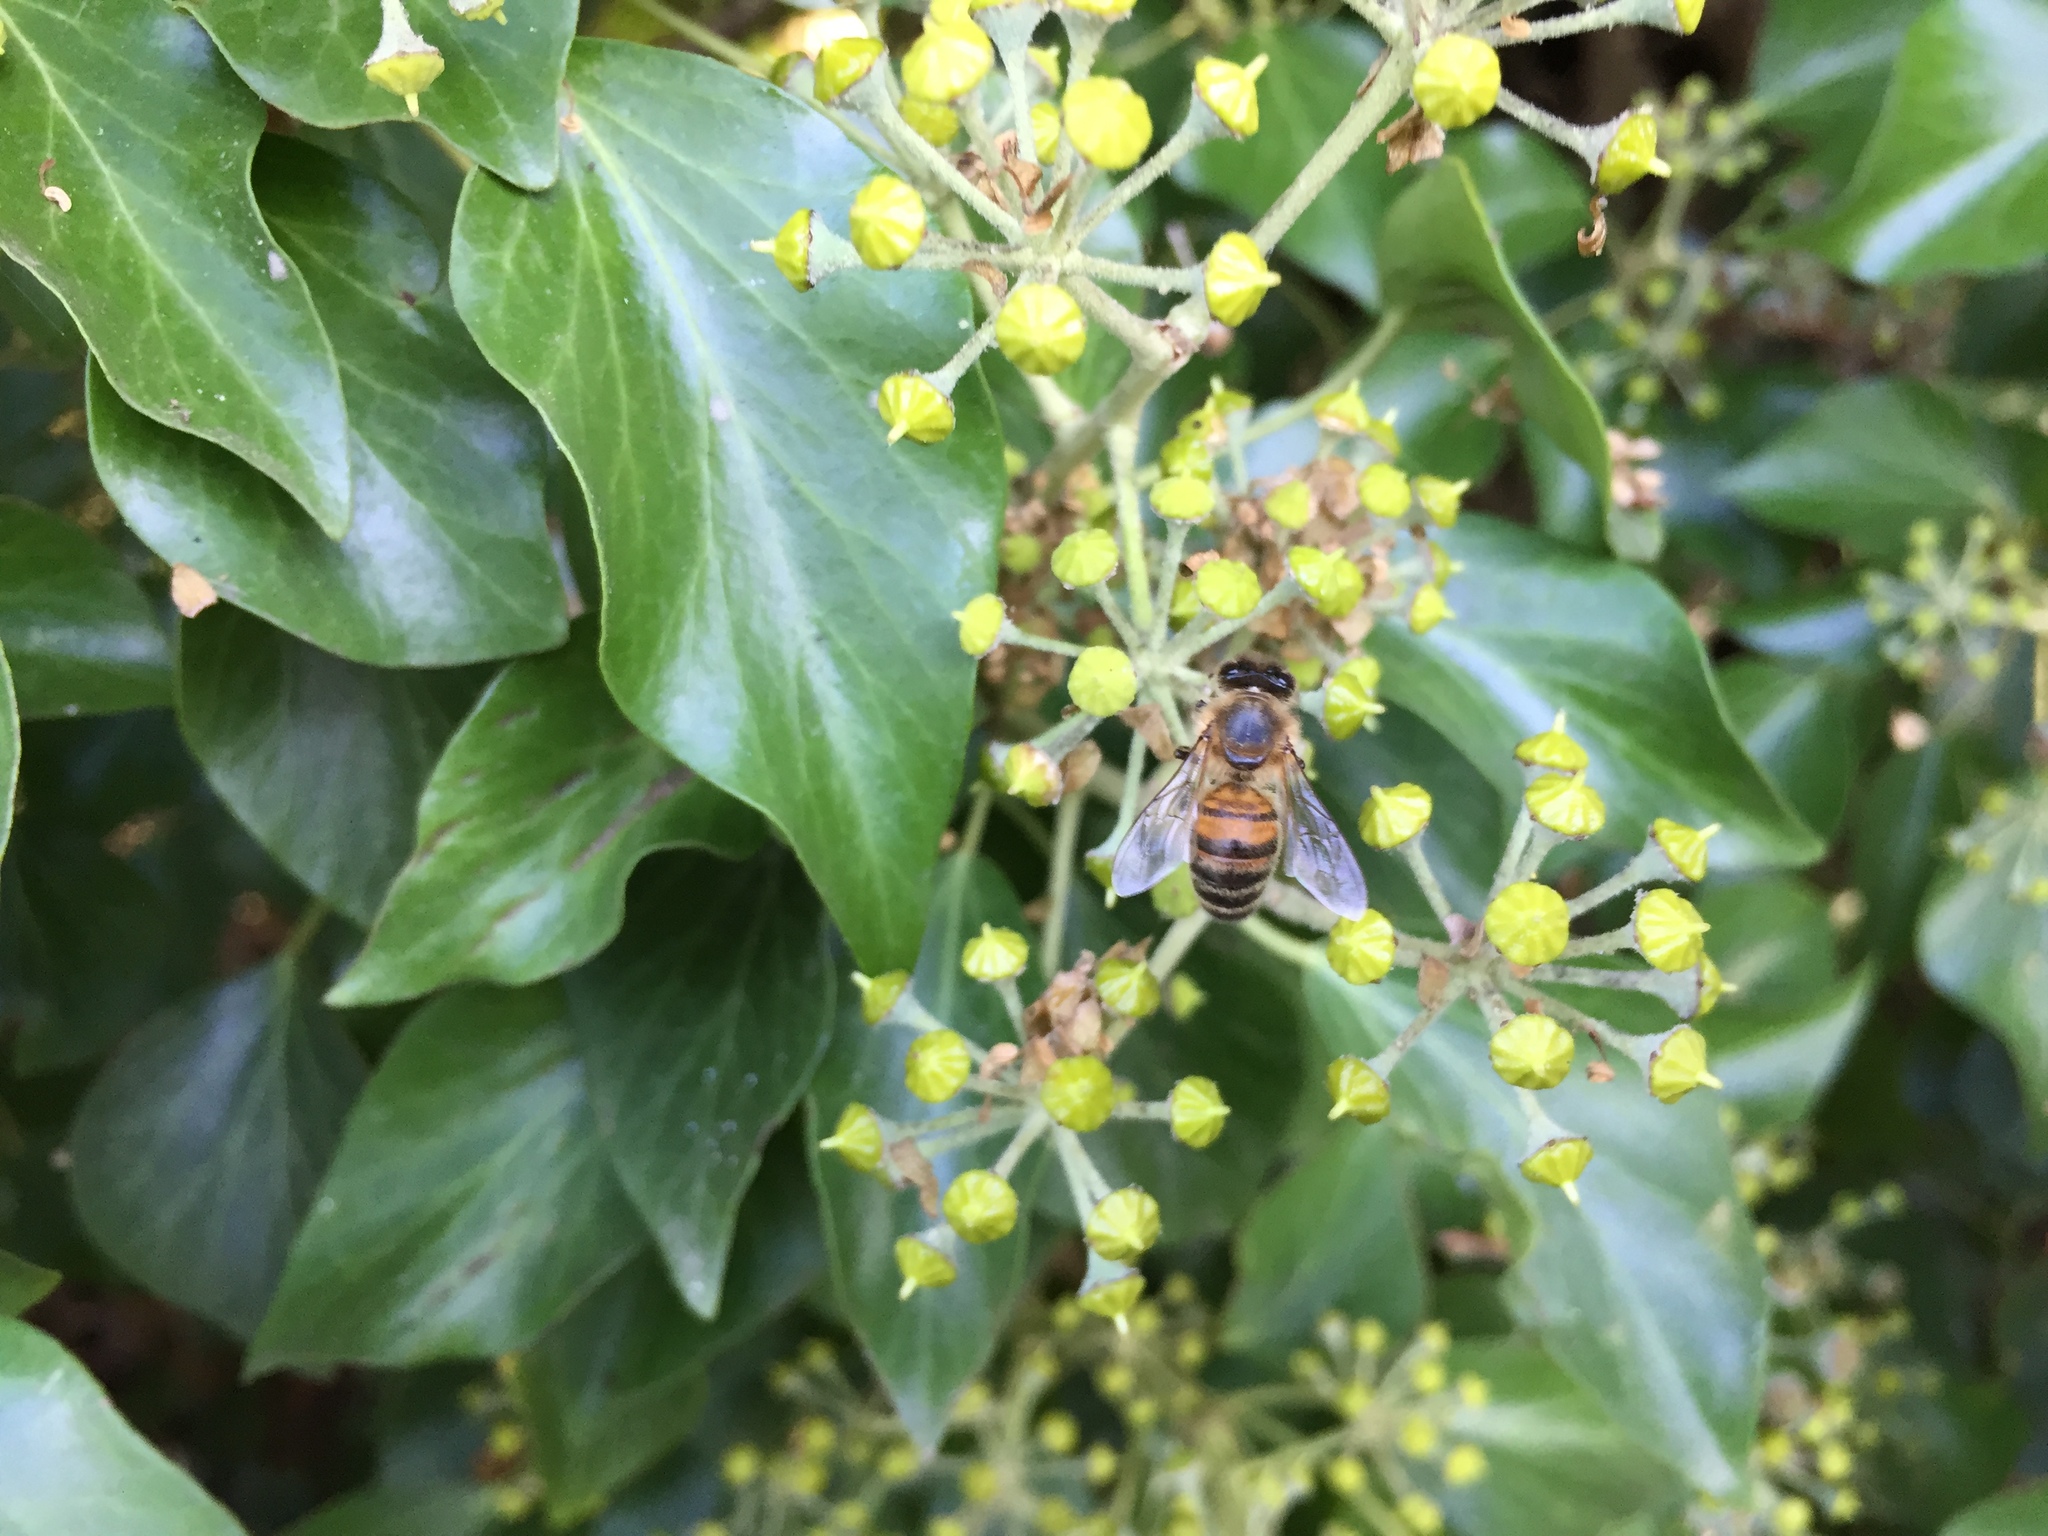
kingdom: Animalia
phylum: Arthropoda
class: Insecta
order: Hymenoptera
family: Apidae
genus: Apis
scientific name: Apis mellifera
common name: Honey bee
